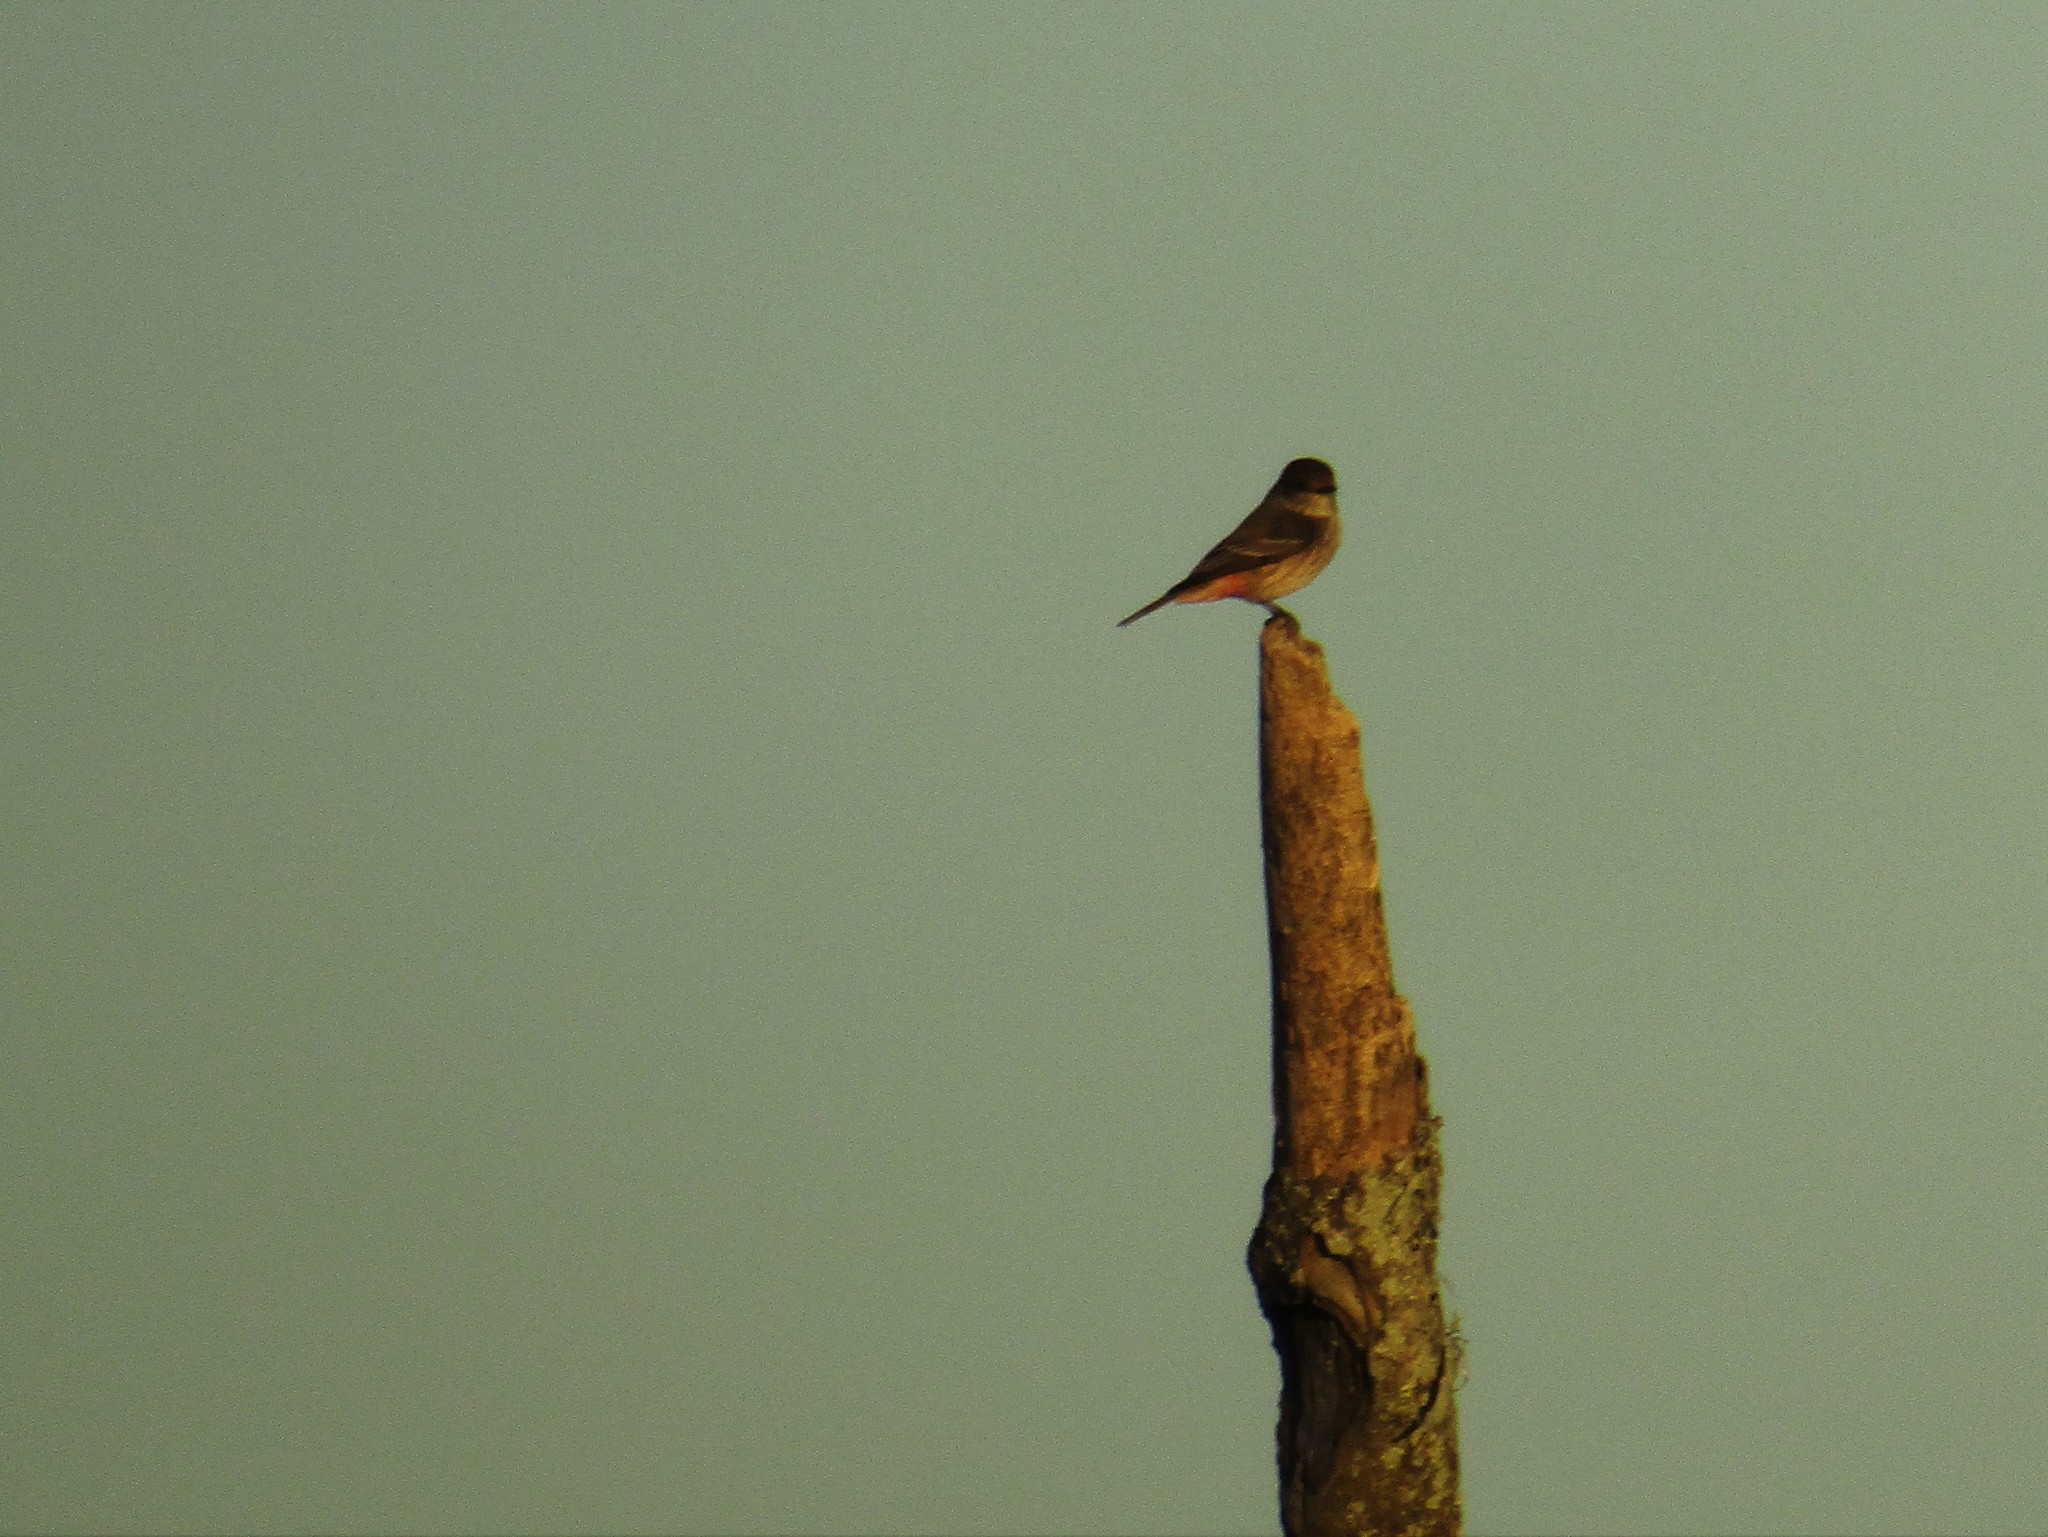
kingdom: Animalia
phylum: Chordata
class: Aves
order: Passeriformes
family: Tyrannidae
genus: Pyrocephalus
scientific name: Pyrocephalus rubinus
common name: Vermilion flycatcher
